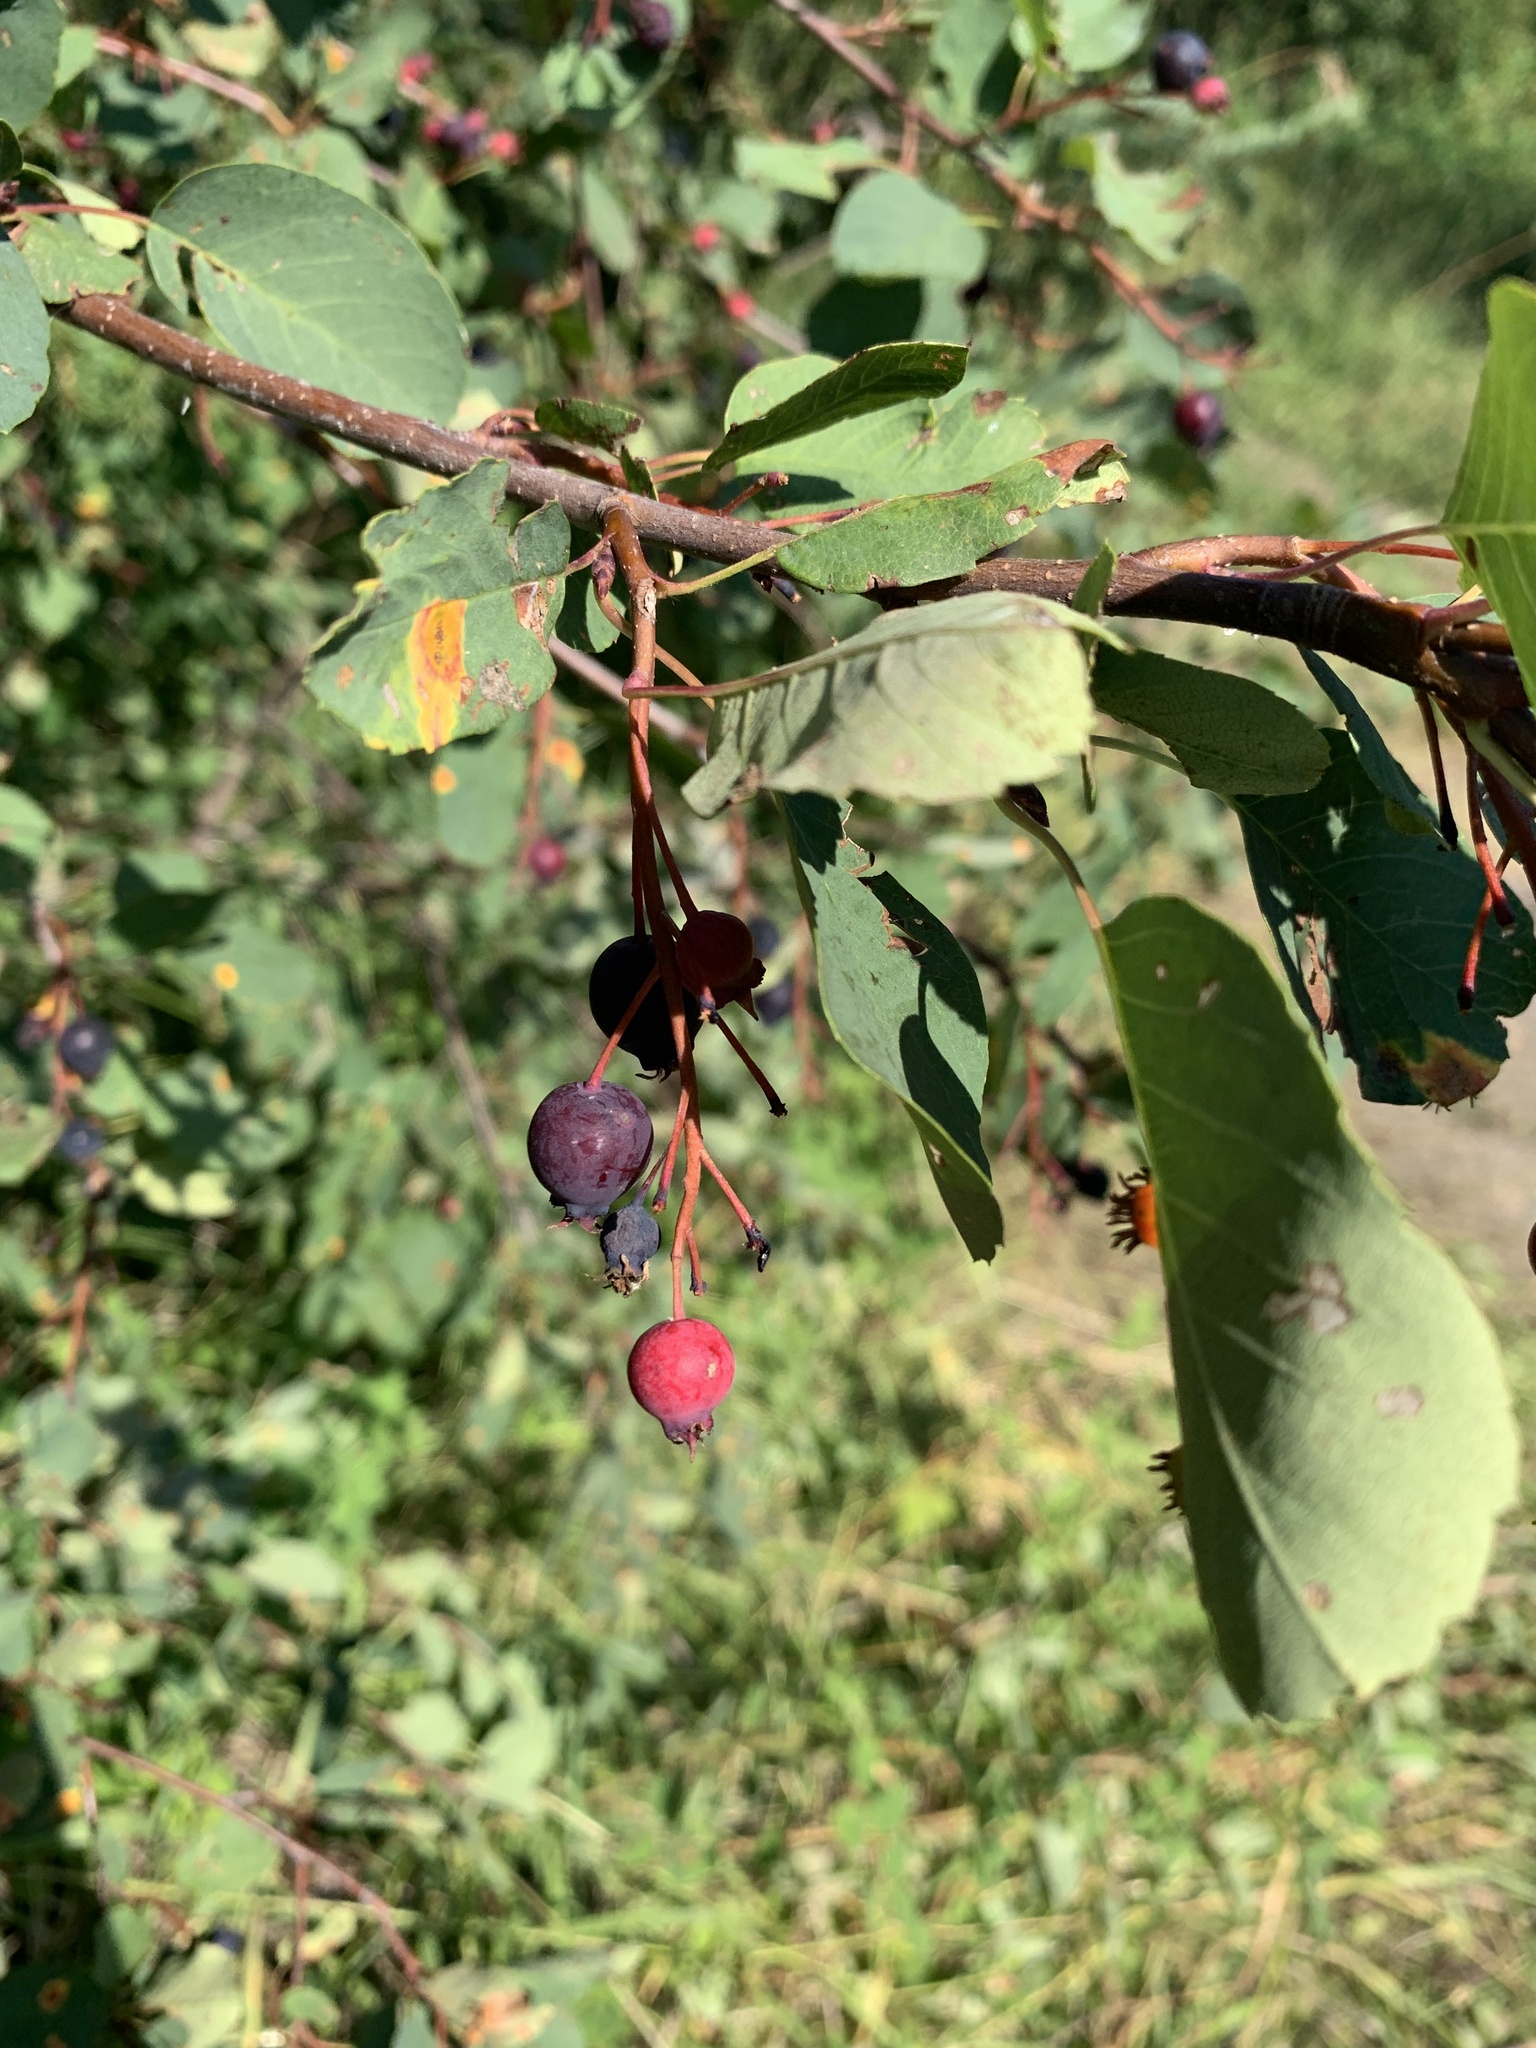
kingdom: Plantae
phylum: Tracheophyta
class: Magnoliopsida
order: Rosales
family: Rosaceae
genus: Amelanchier
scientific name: Amelanchier alnifolia
